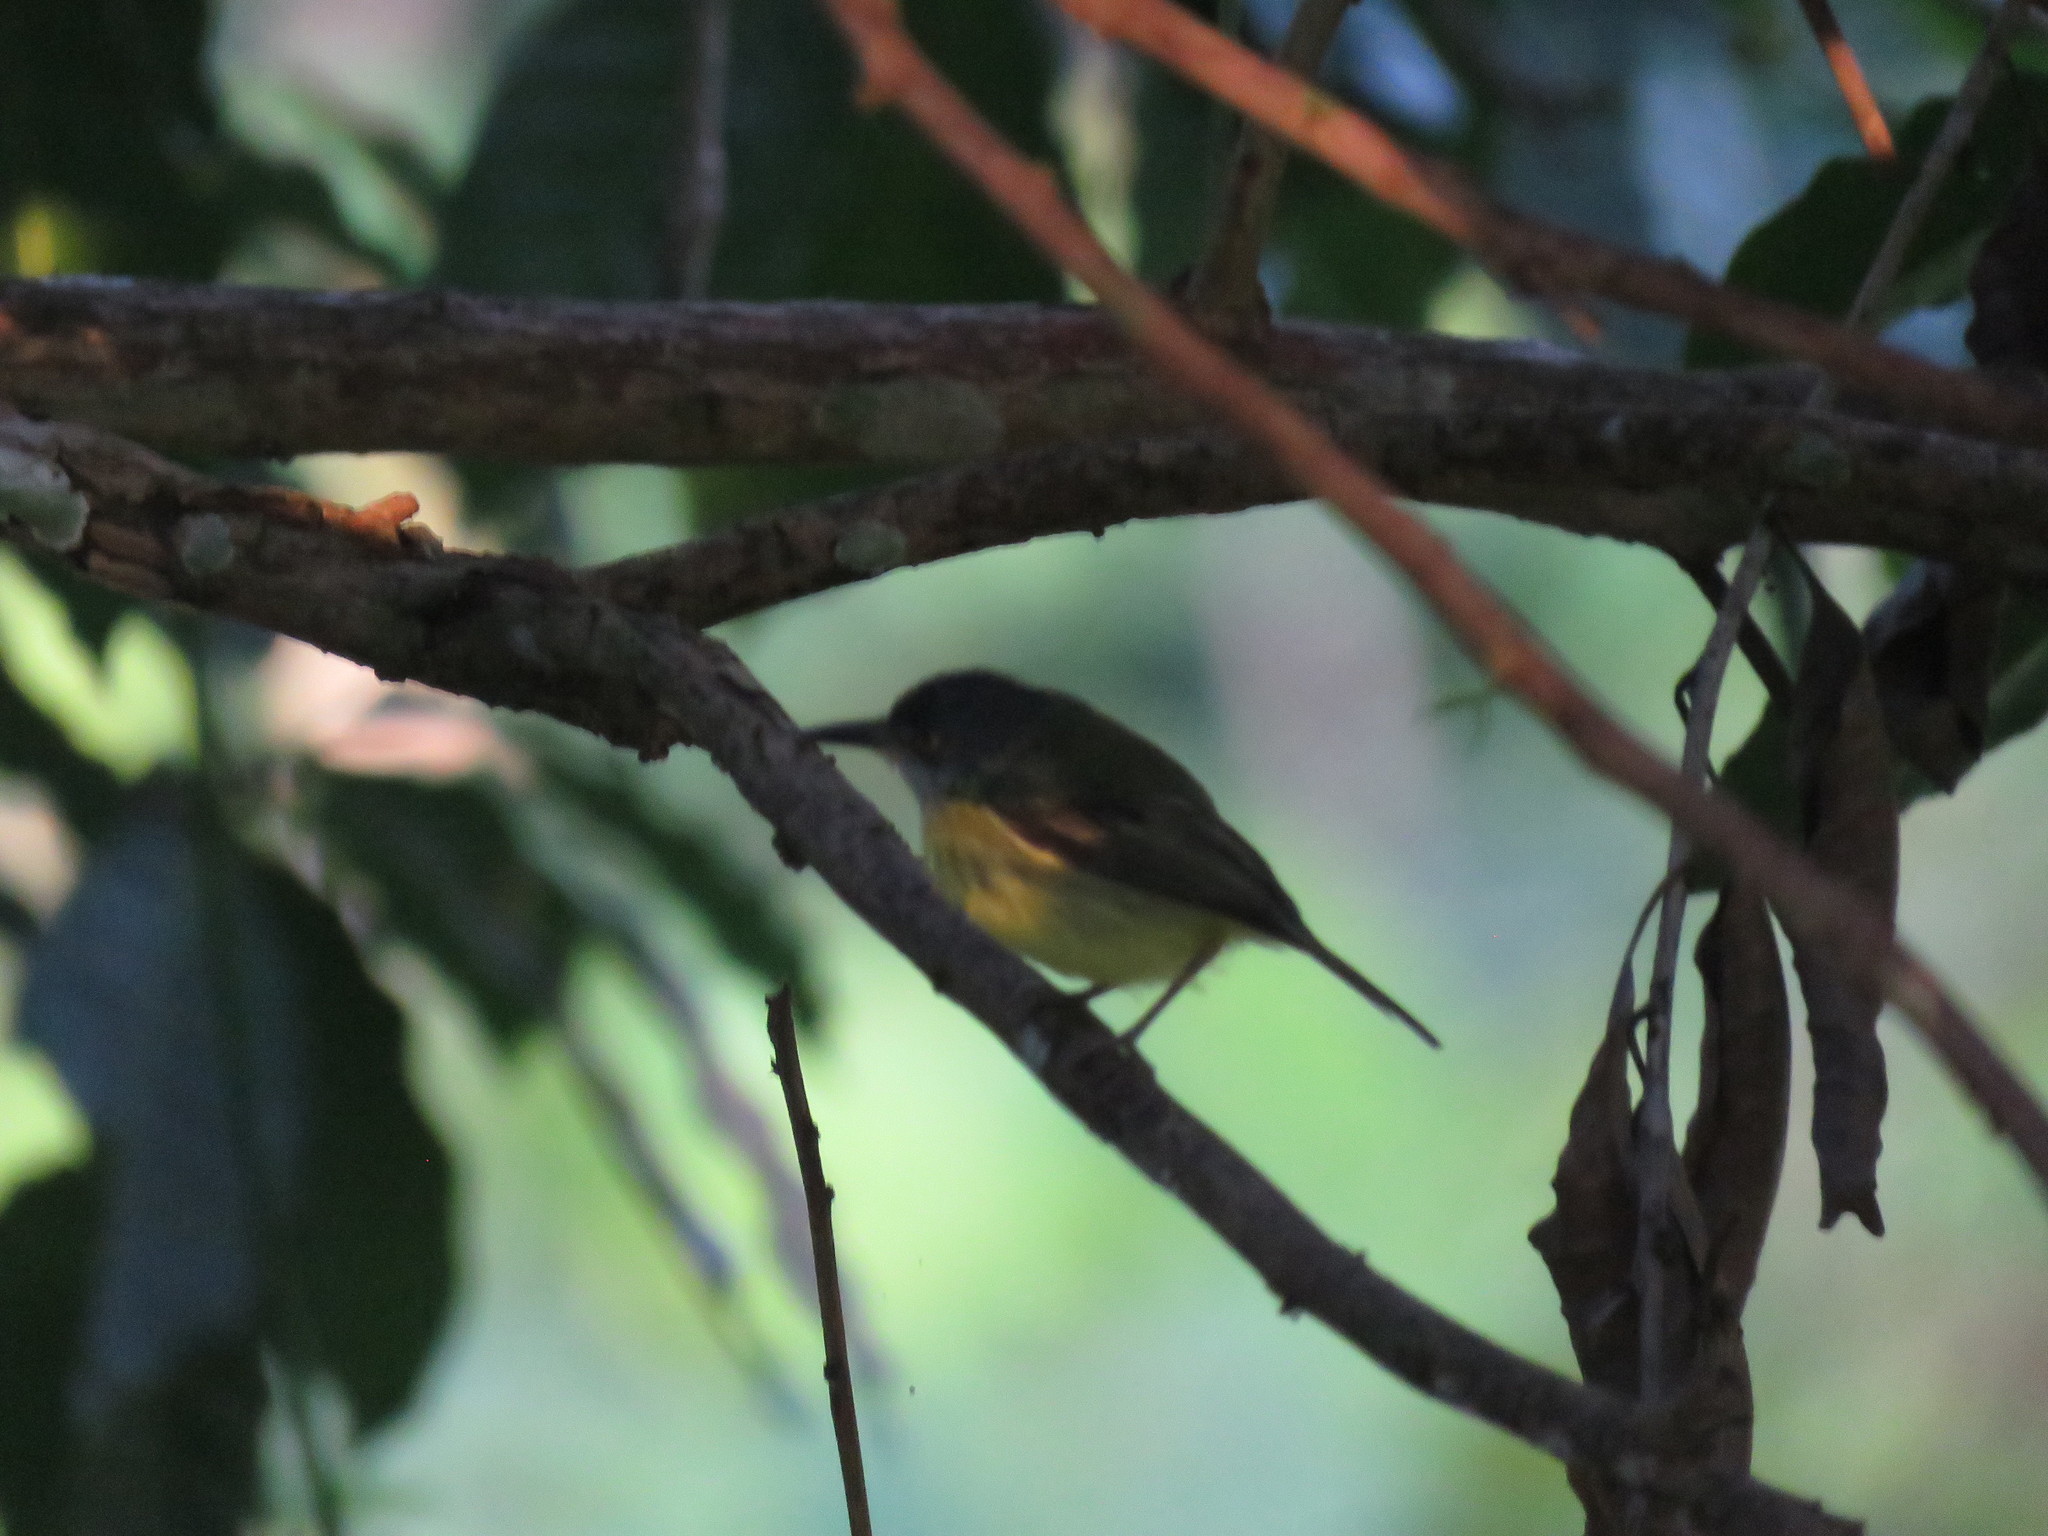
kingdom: Animalia
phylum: Chordata
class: Aves
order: Passeriformes
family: Tyrannidae
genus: Todirostrum
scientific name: Todirostrum maculatum
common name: Spotted tody-flycatcher
